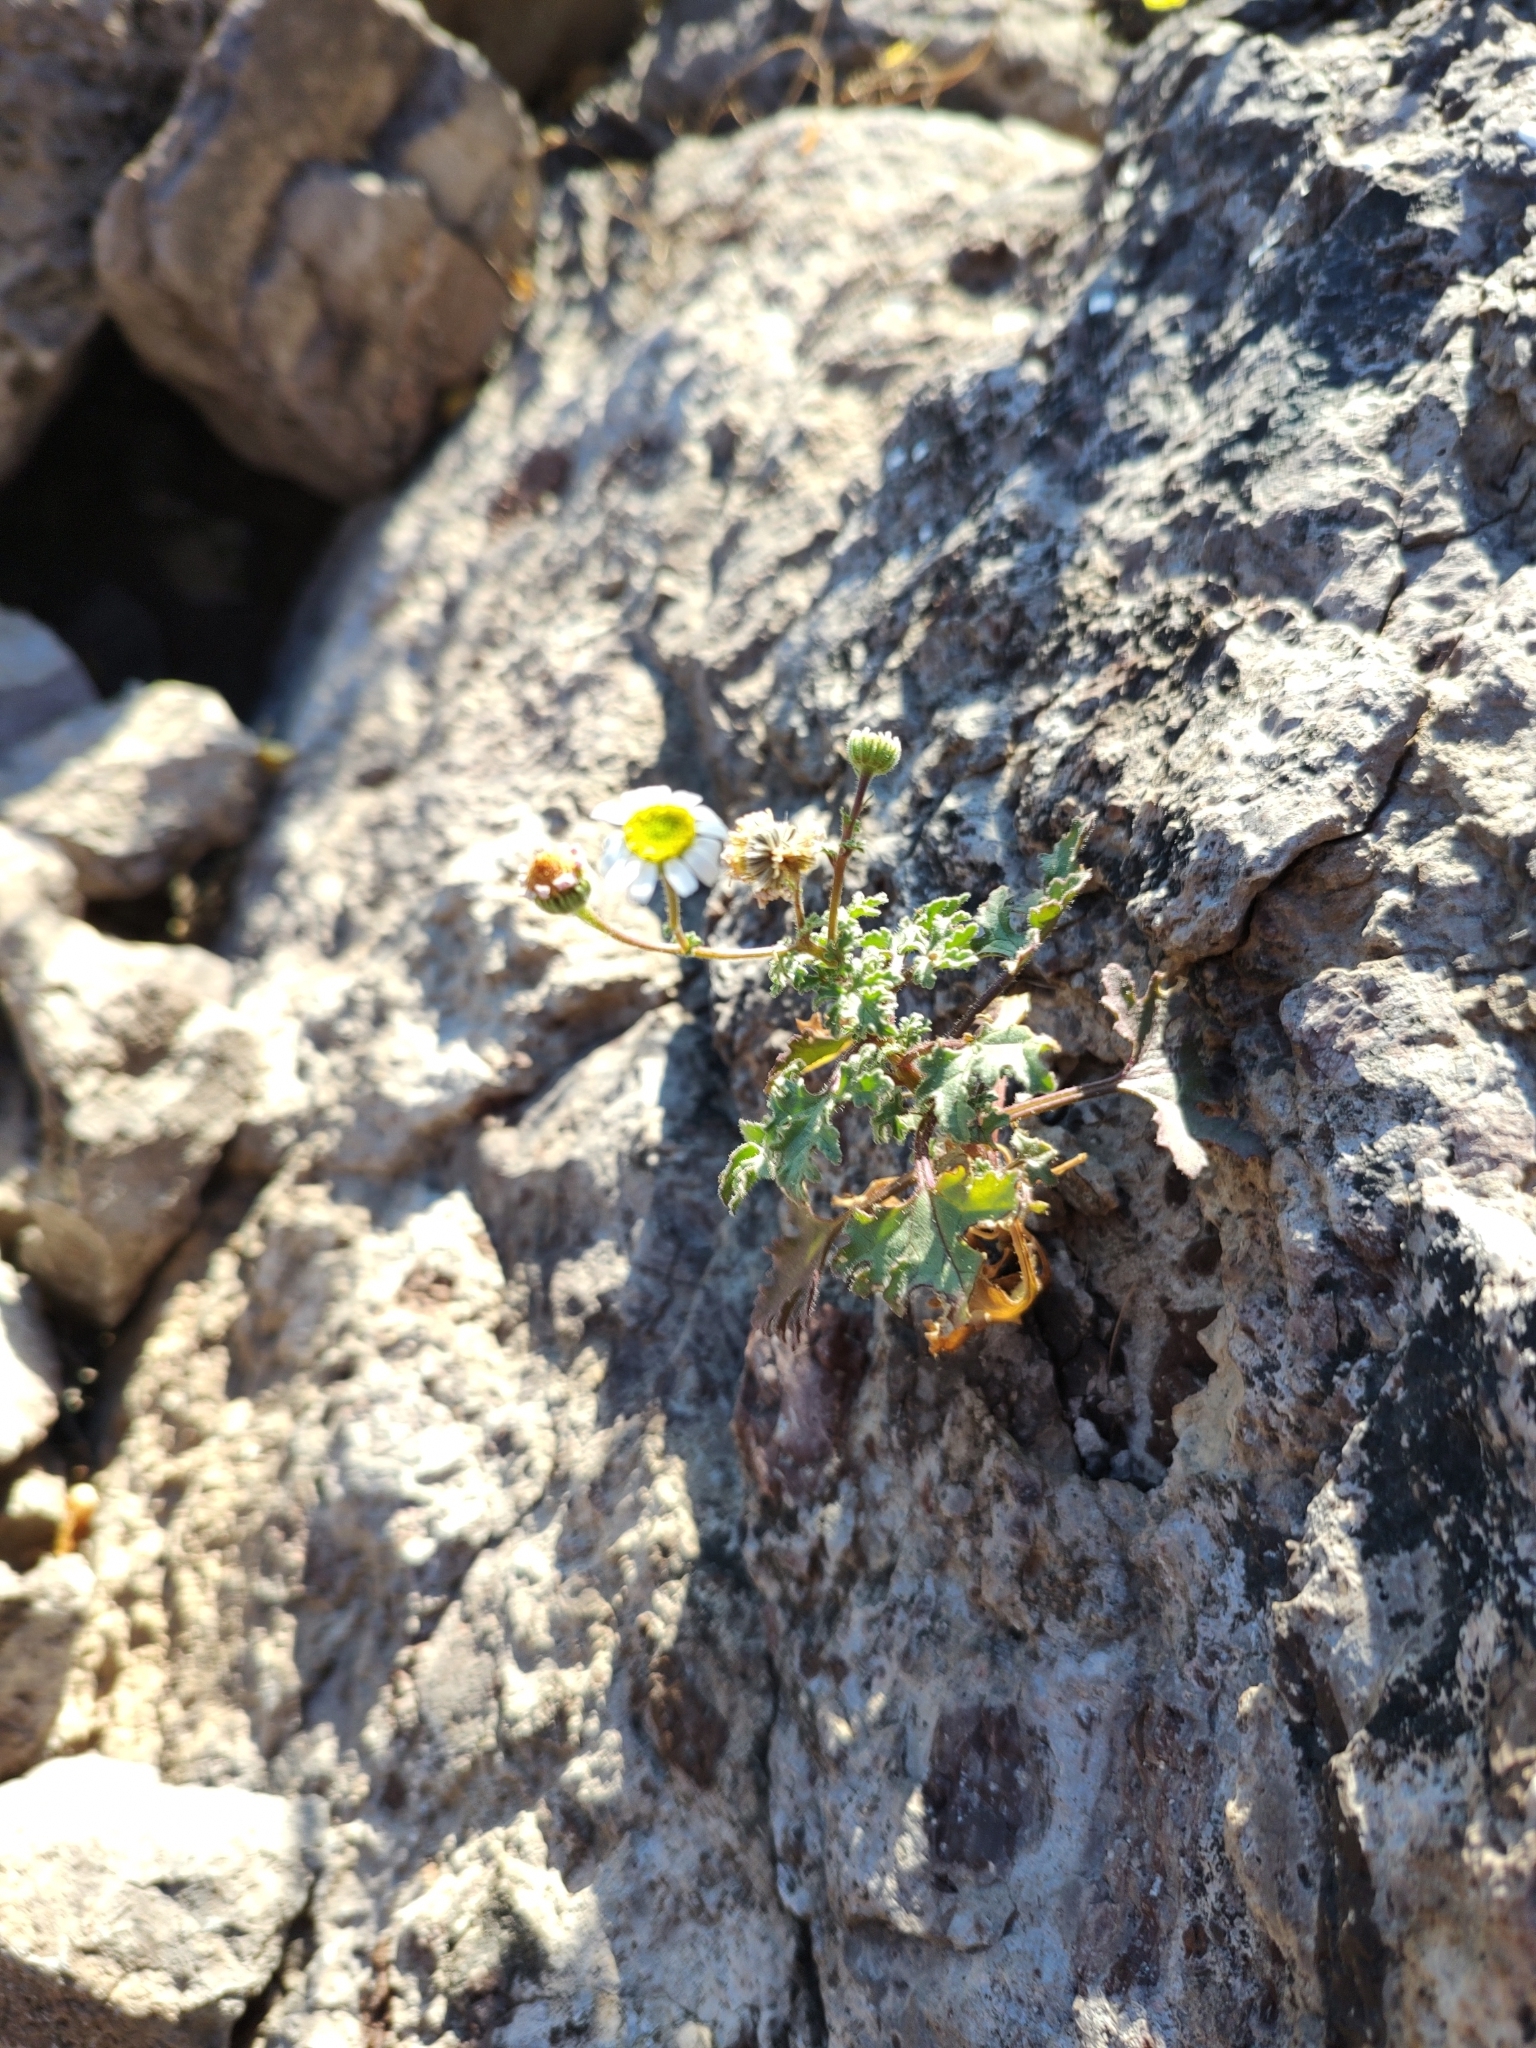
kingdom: Plantae
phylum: Tracheophyta
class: Magnoliopsida
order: Asterales
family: Asteraceae
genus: Perityle
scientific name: Perityle crassifolia
